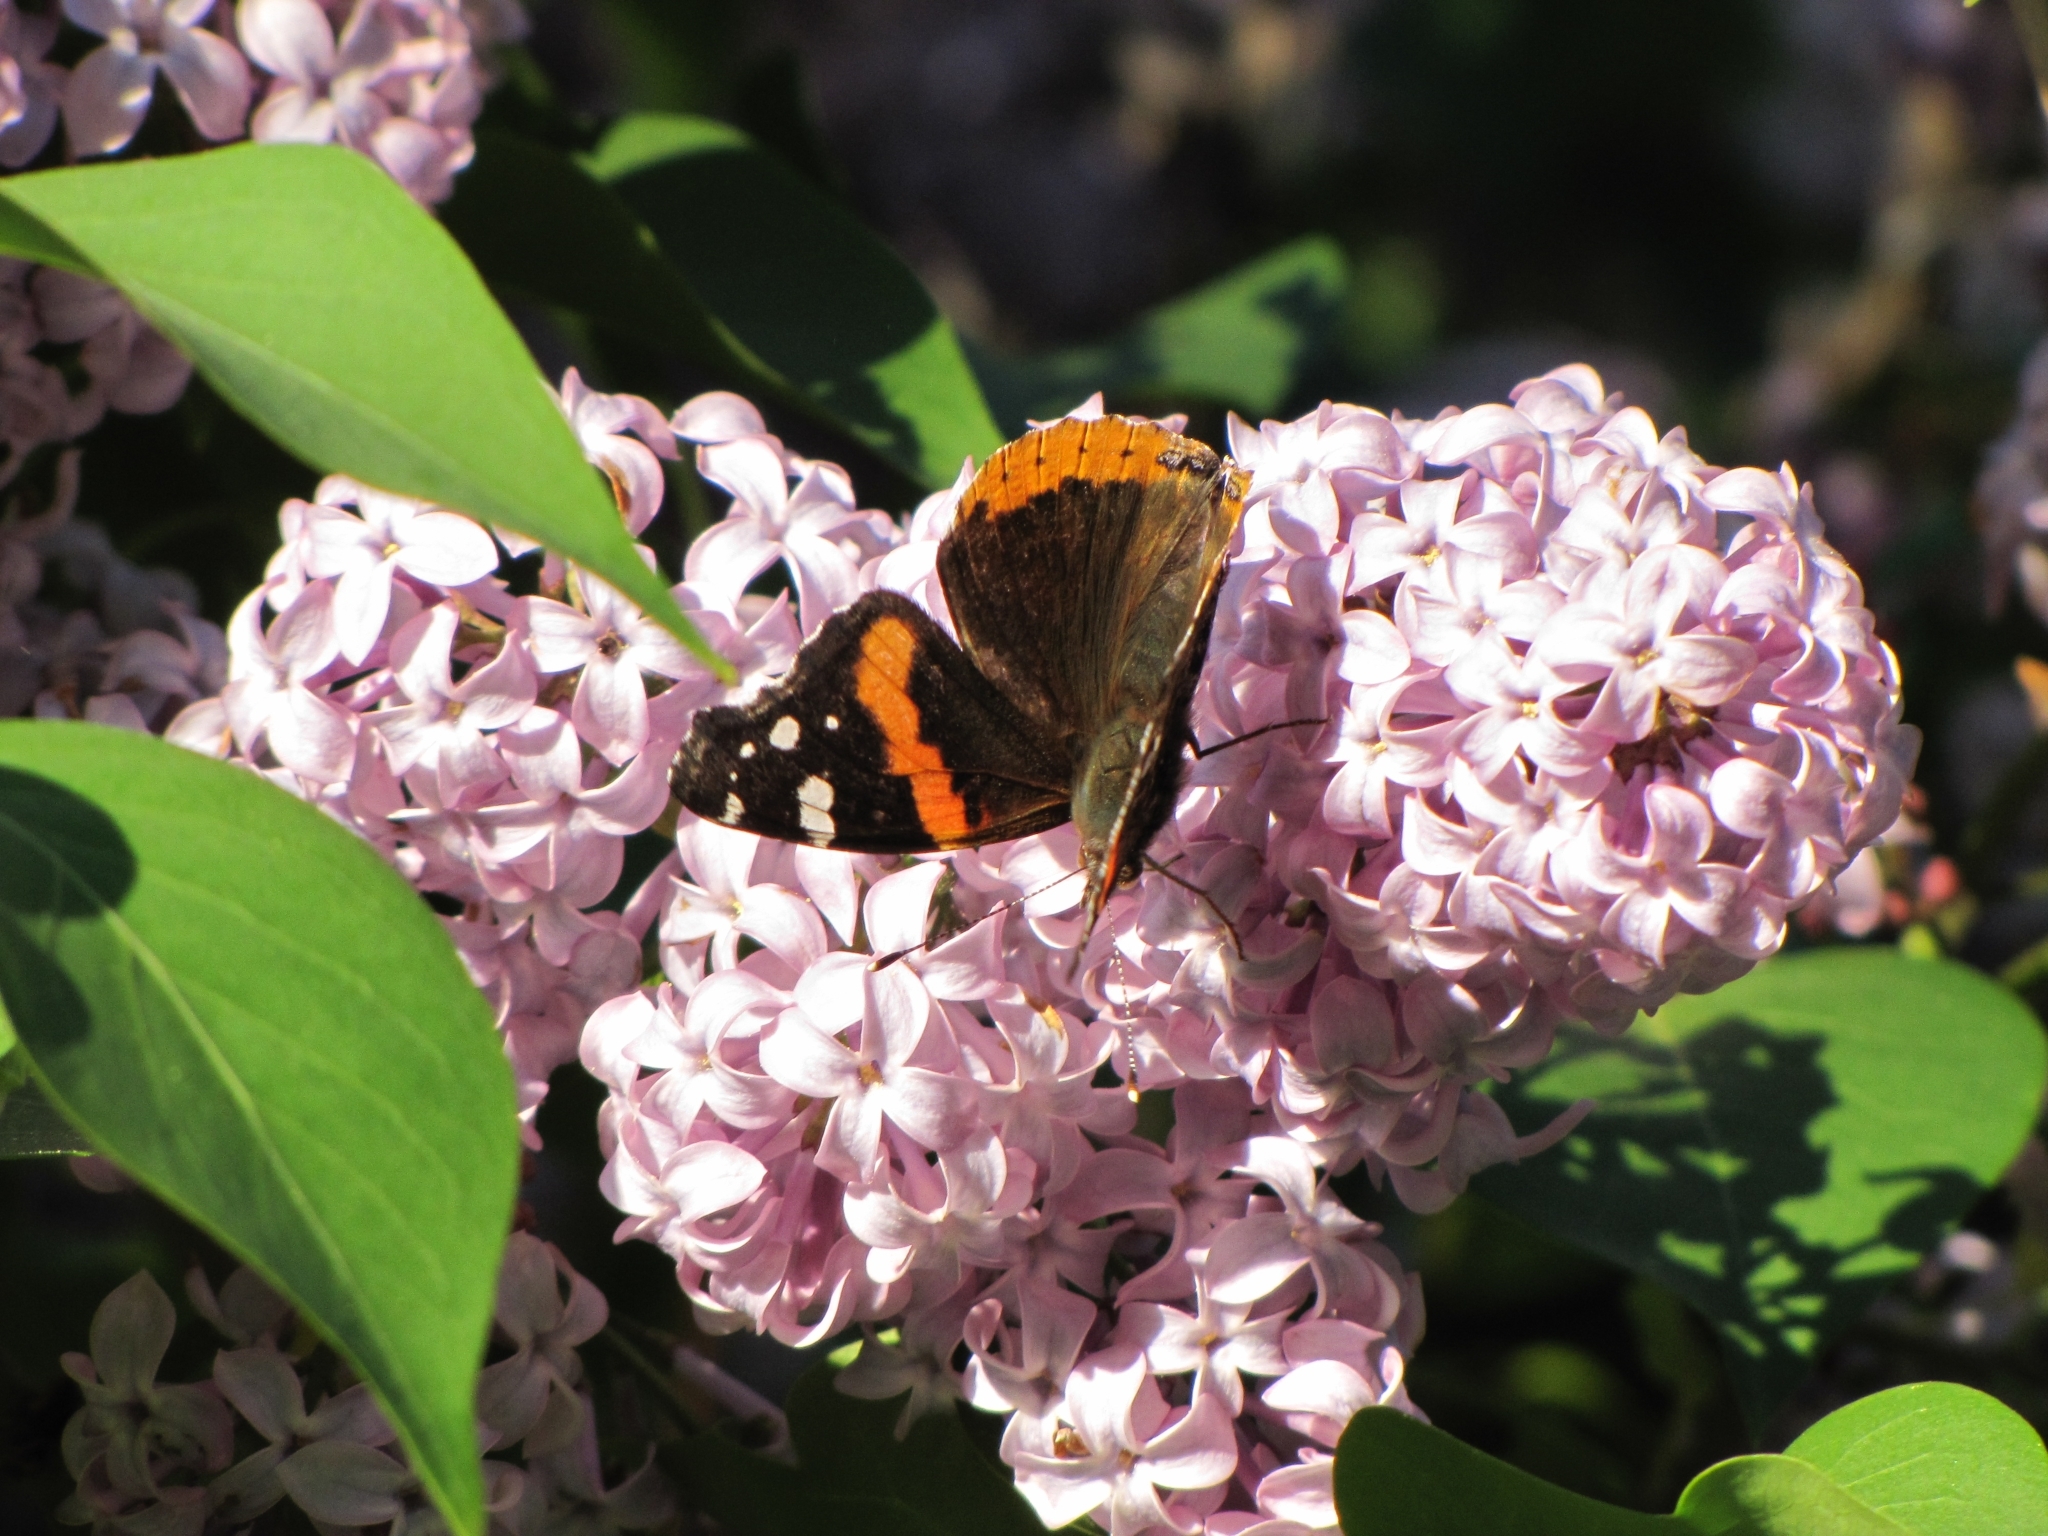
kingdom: Animalia
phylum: Arthropoda
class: Insecta
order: Lepidoptera
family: Nymphalidae
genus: Vanessa
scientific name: Vanessa atalanta
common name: Red admiral
